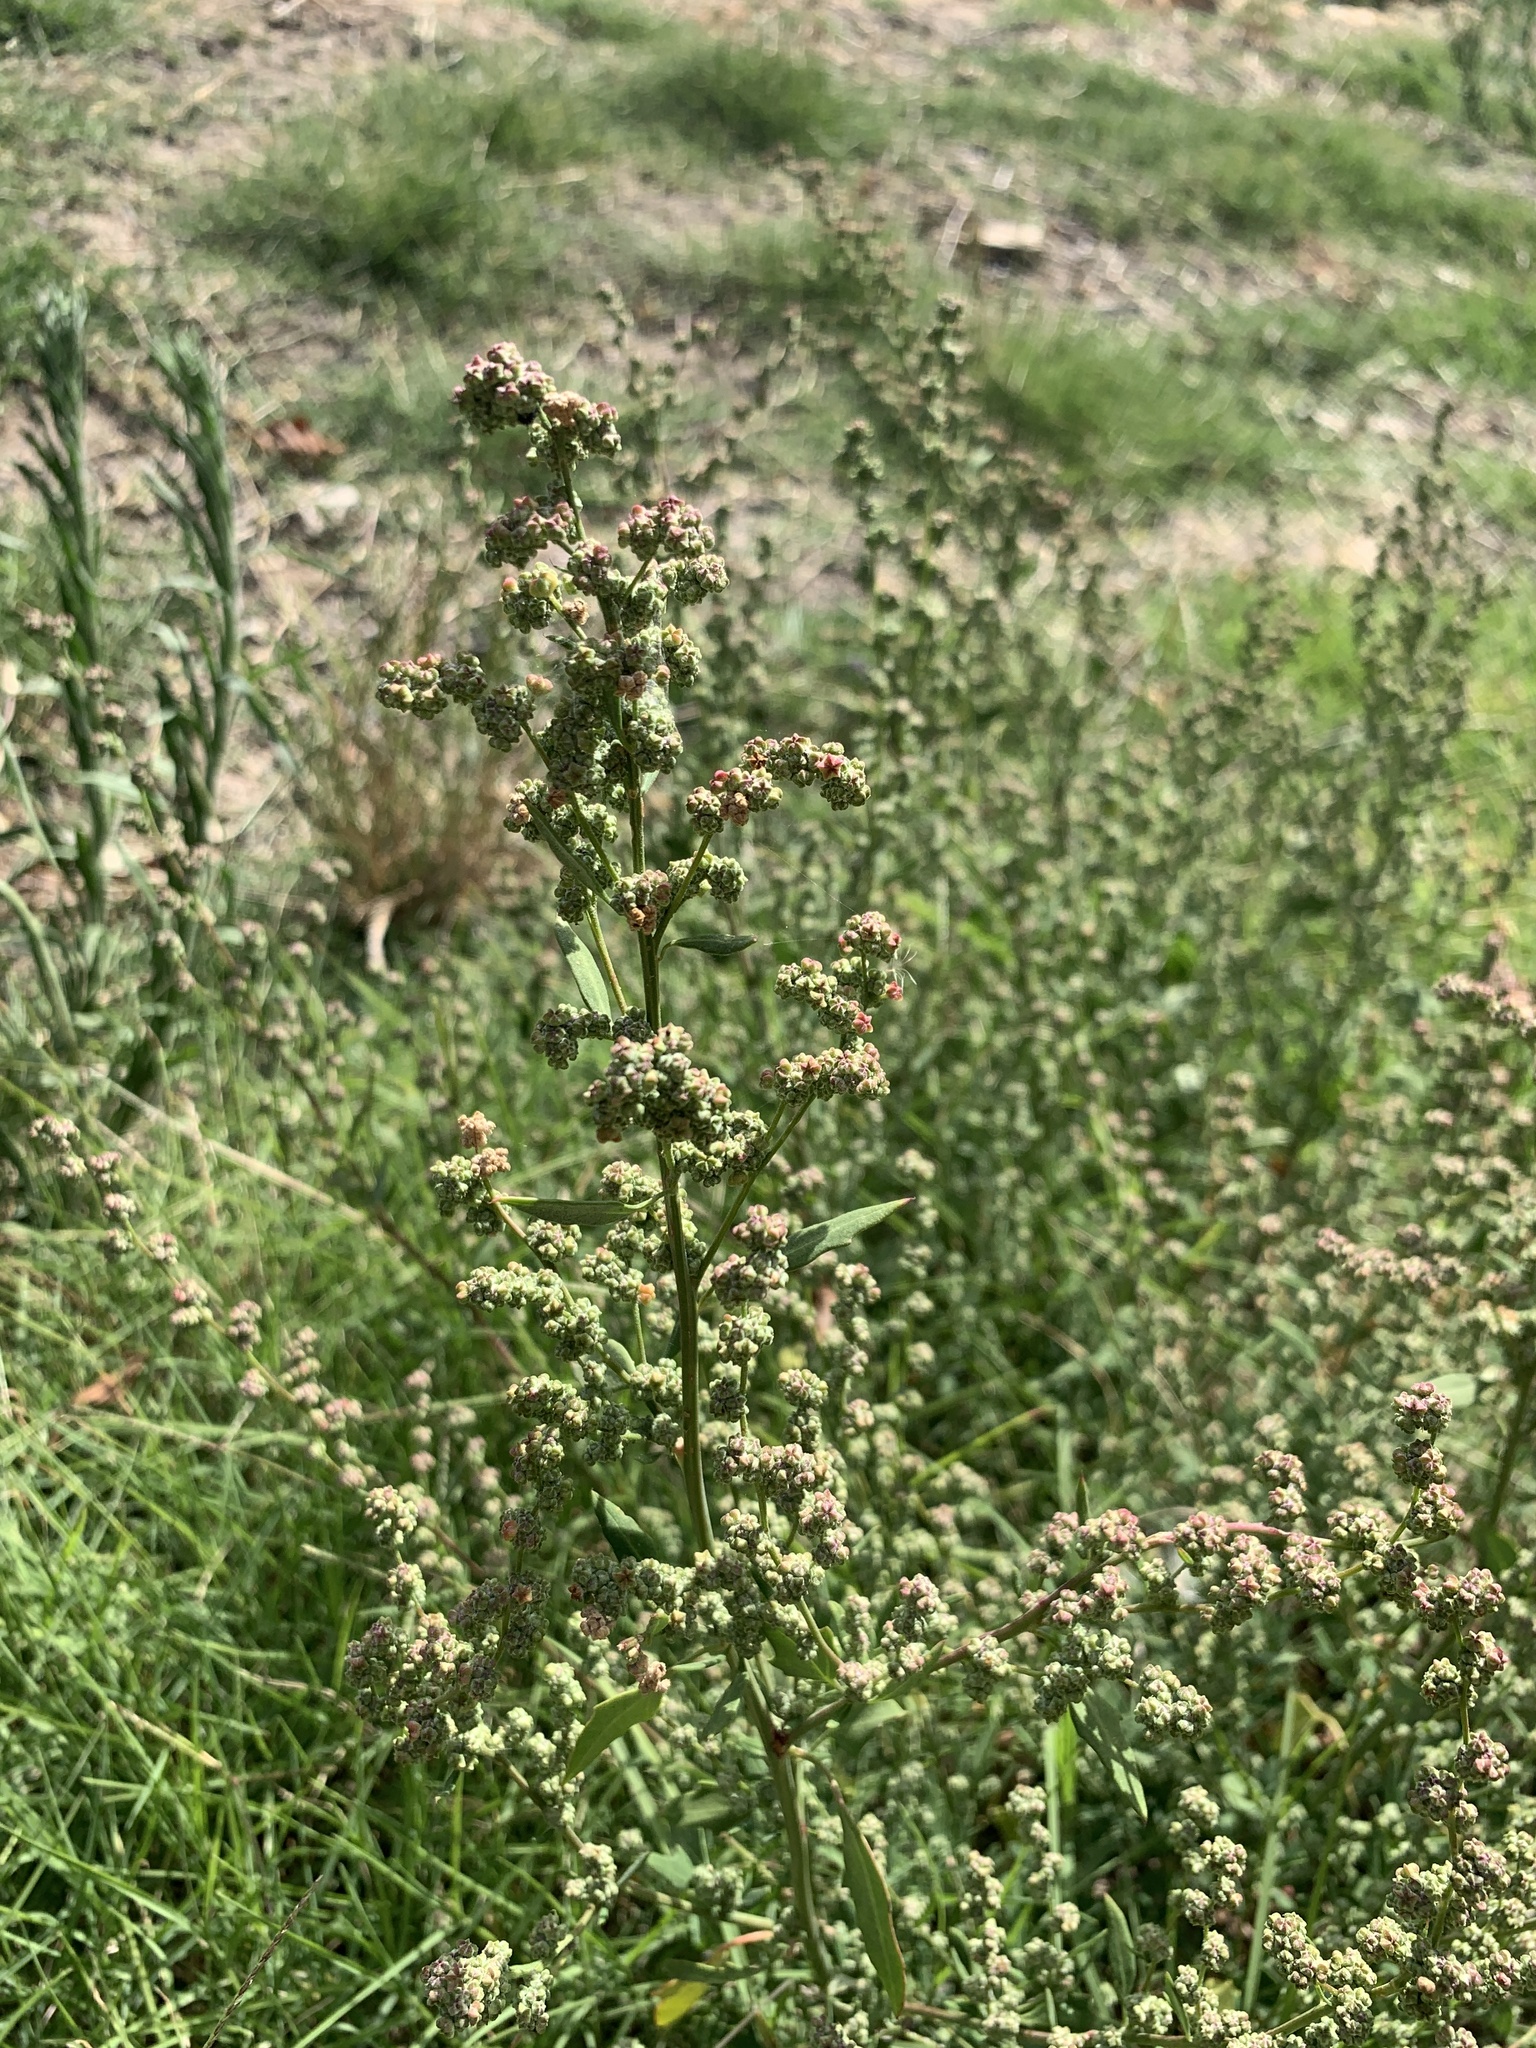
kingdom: Plantae
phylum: Tracheophyta
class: Magnoliopsida
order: Caryophyllales
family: Amaranthaceae
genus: Chenopodium
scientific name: Chenopodium album
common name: Fat-hen
